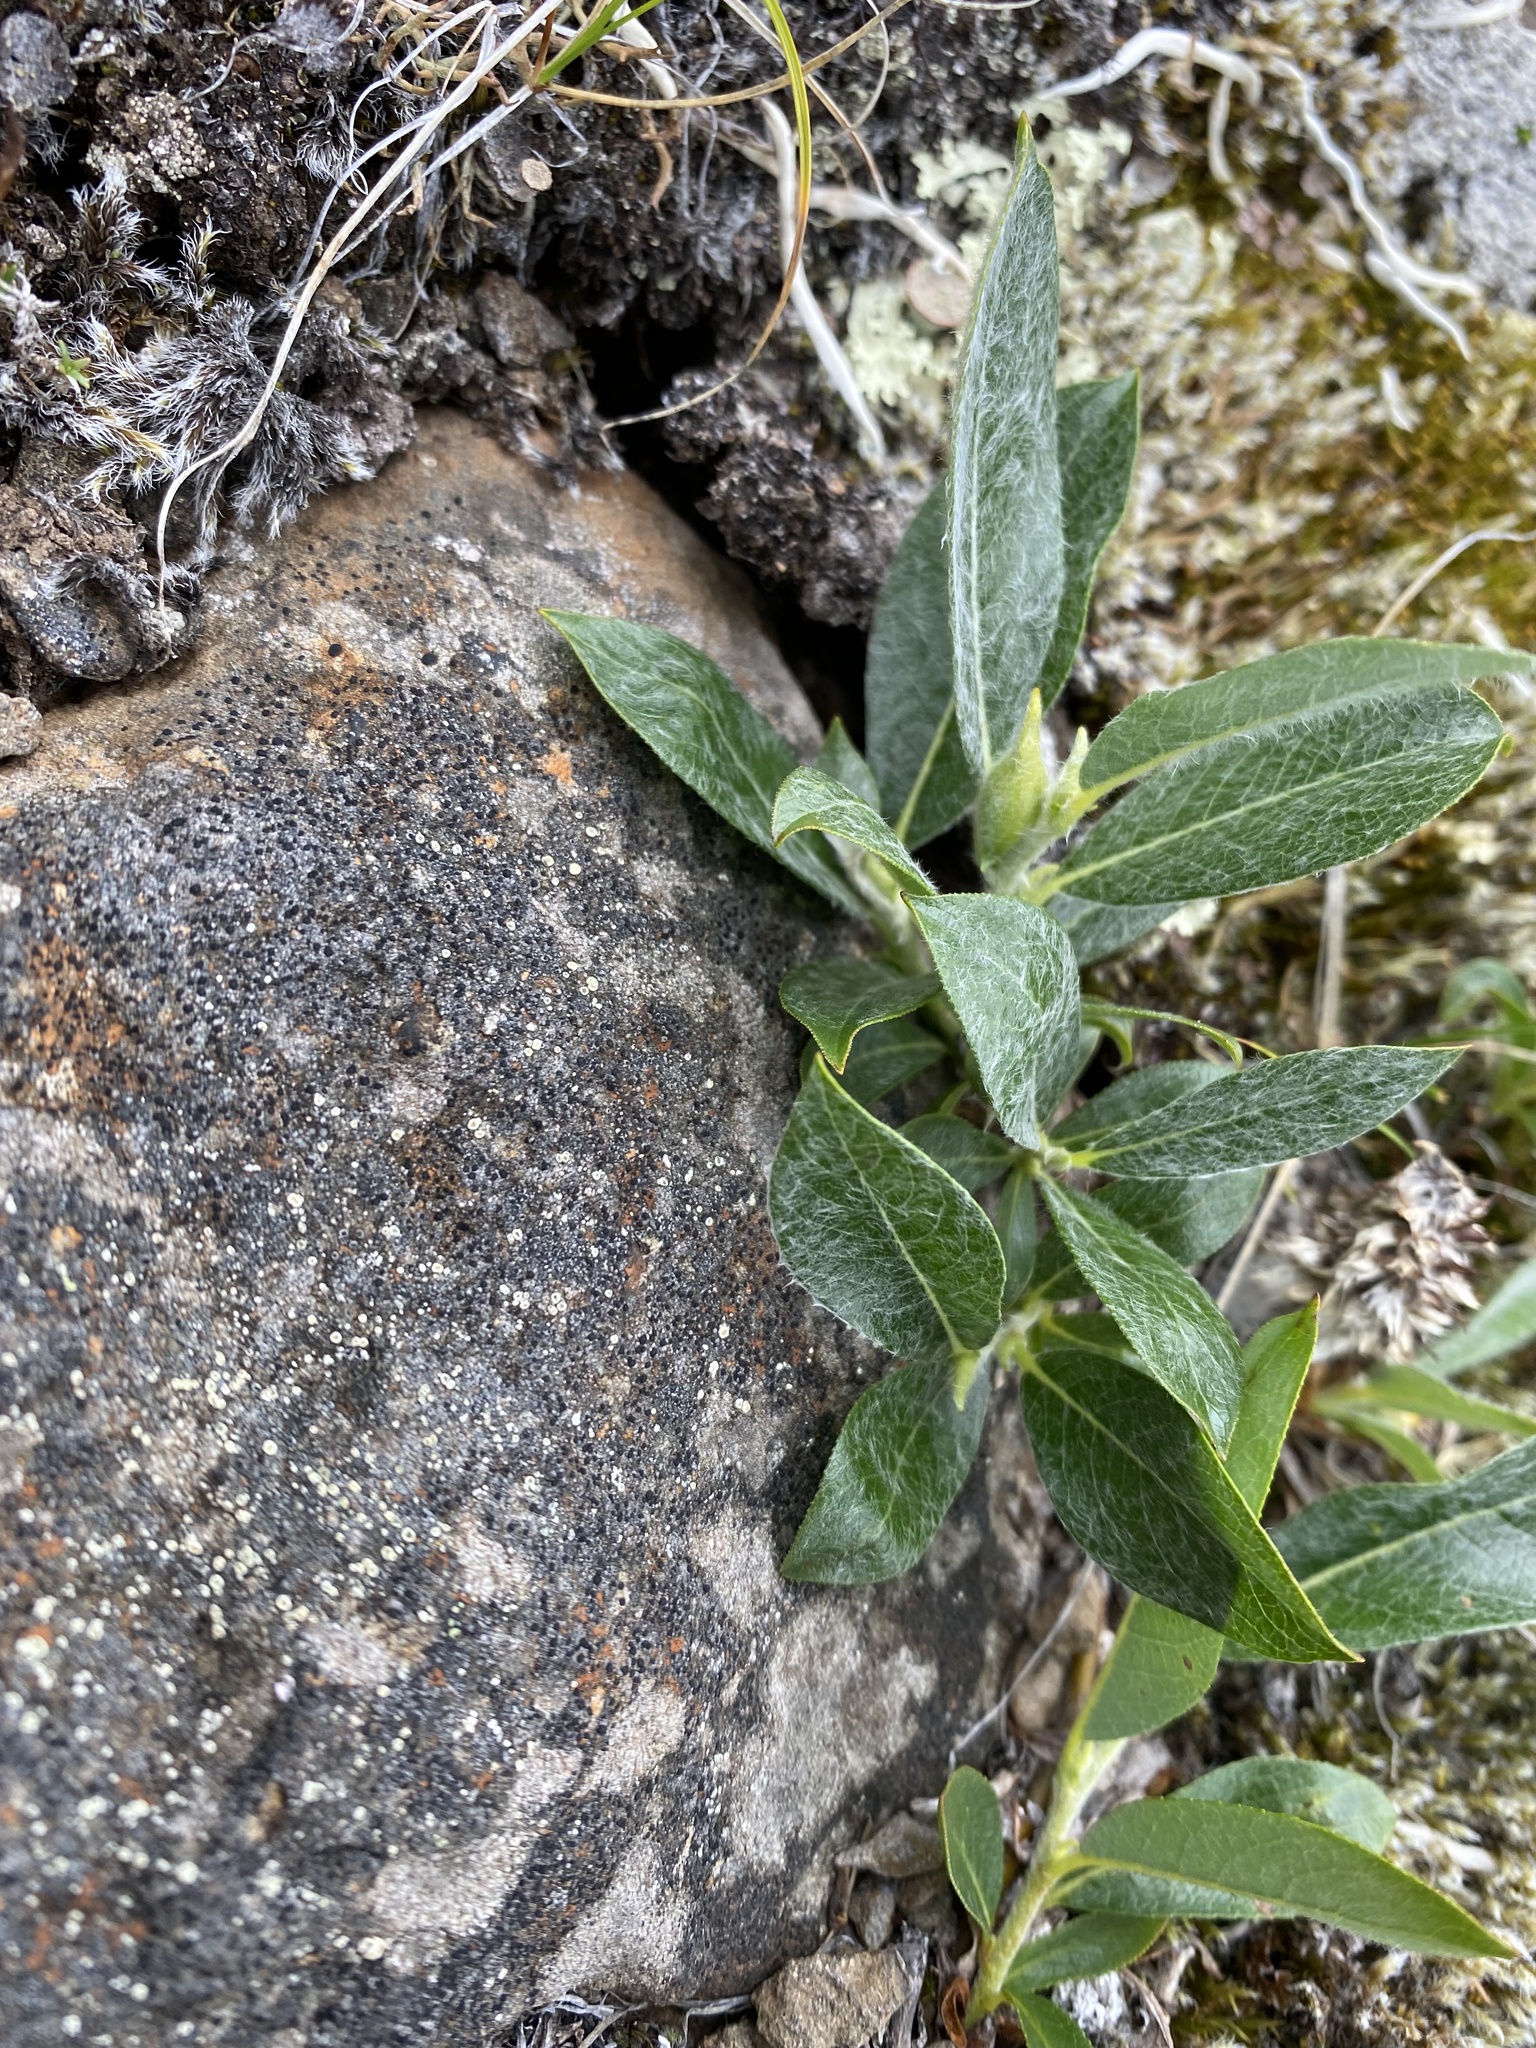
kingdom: Plantae
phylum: Tracheophyta
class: Magnoliopsida
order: Malpighiales
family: Salicaceae
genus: Salix
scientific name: Salix recurvigemmata
